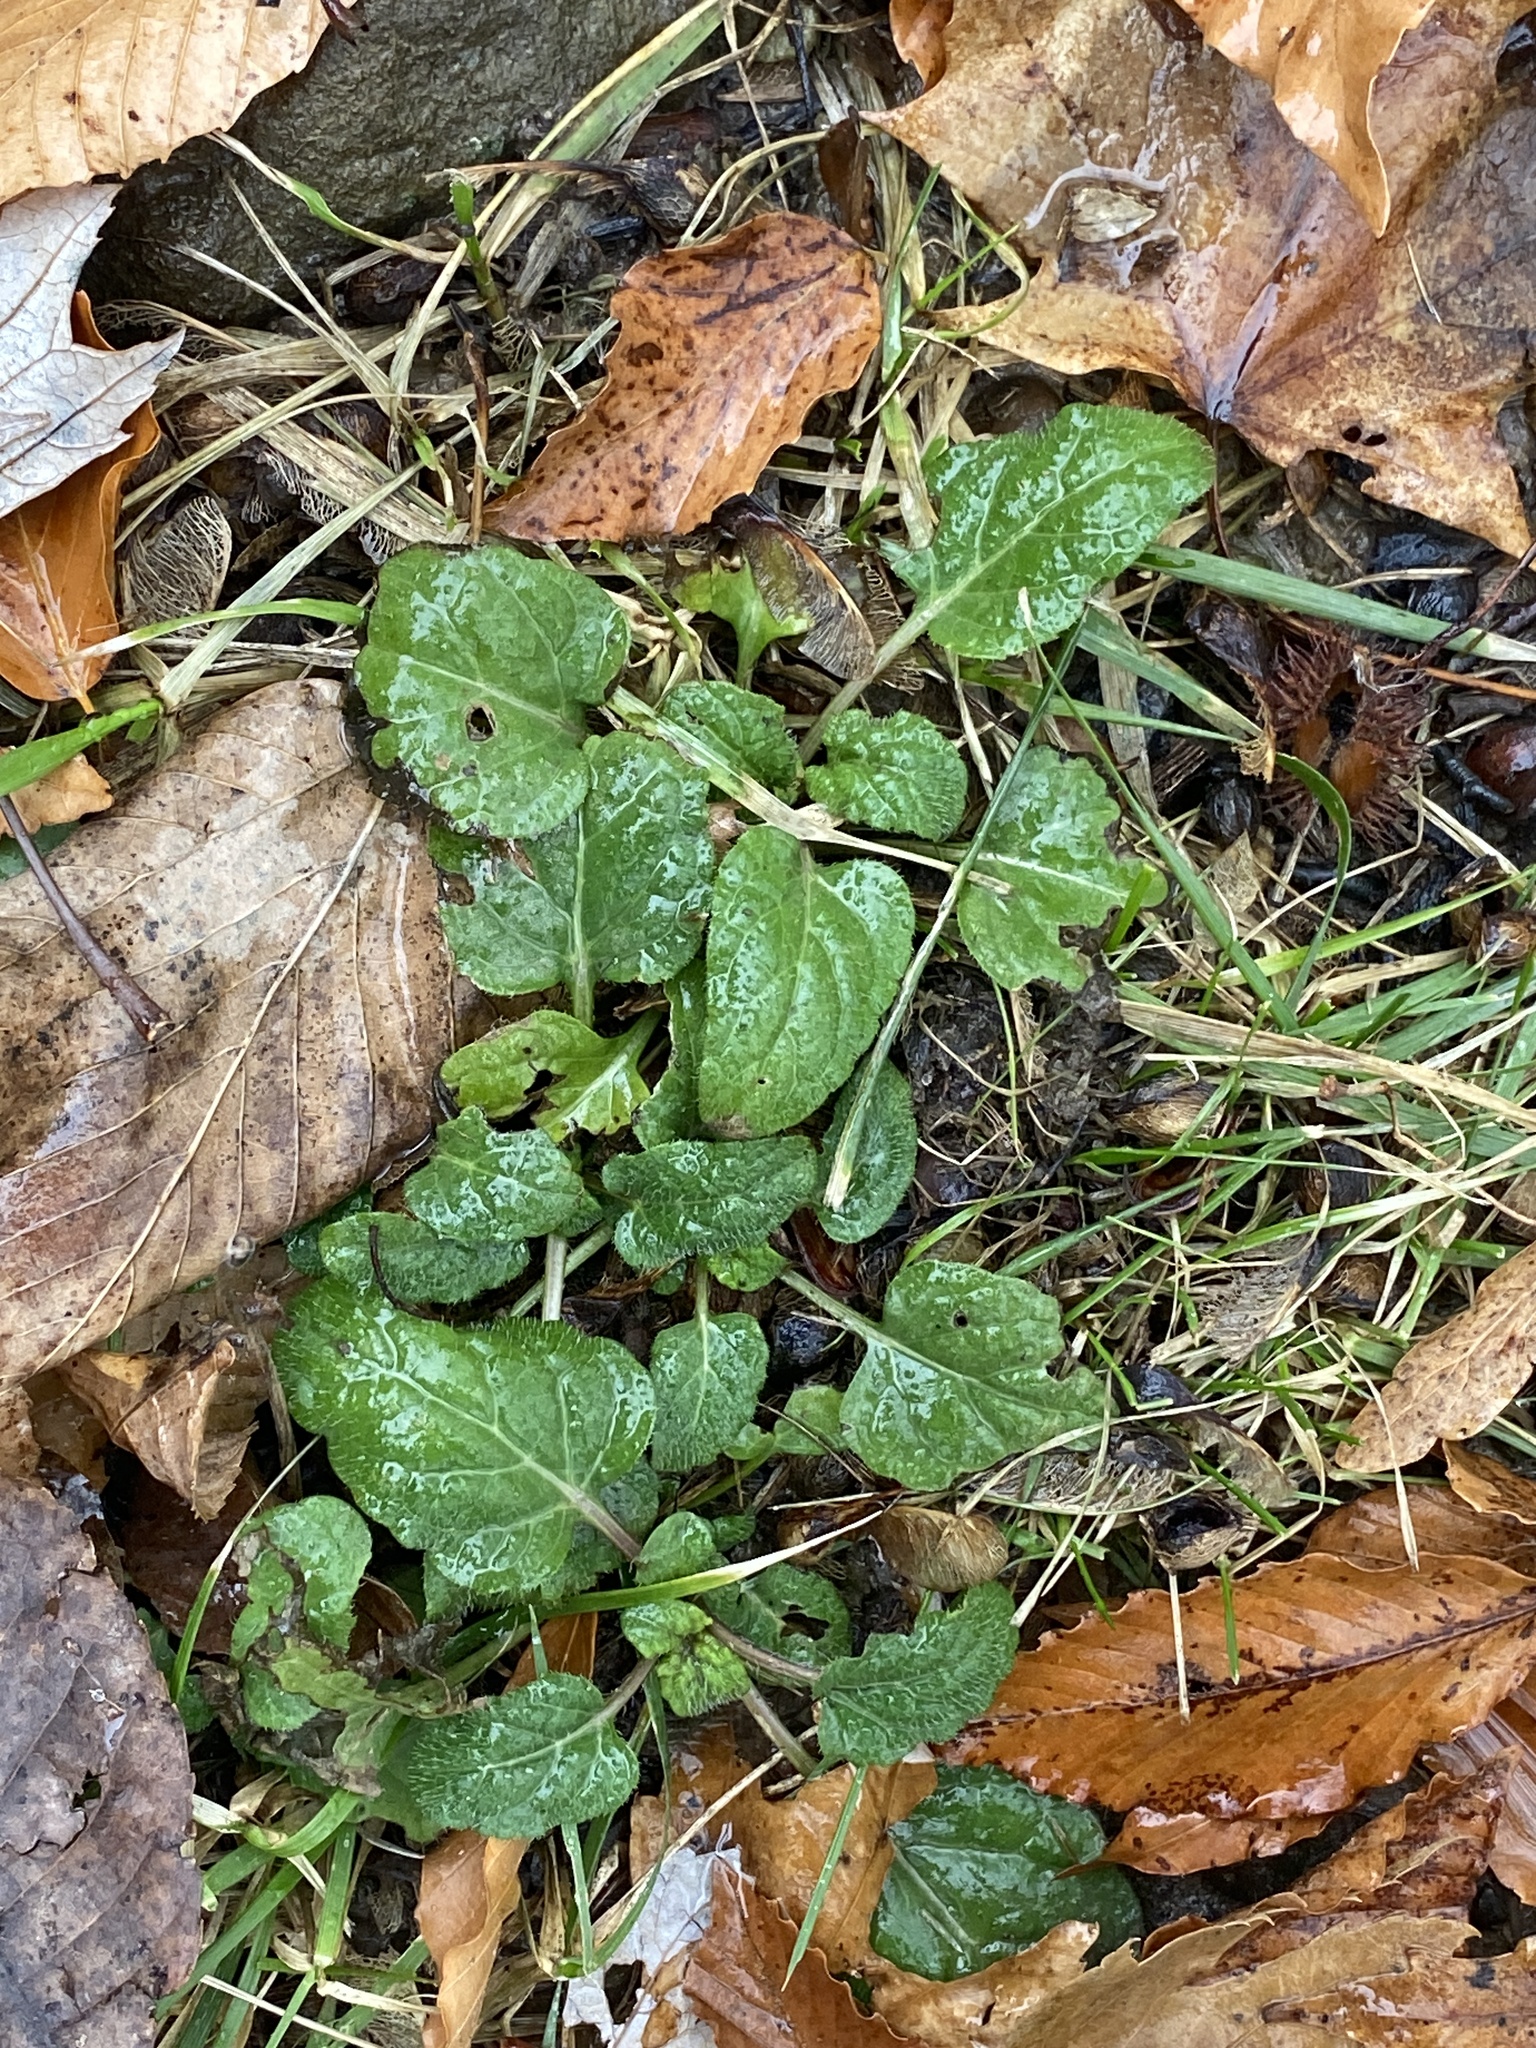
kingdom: Plantae
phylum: Tracheophyta
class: Magnoliopsida
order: Lamiales
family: Lamiaceae
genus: Prunella
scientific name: Prunella vulgaris
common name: Heal-all
